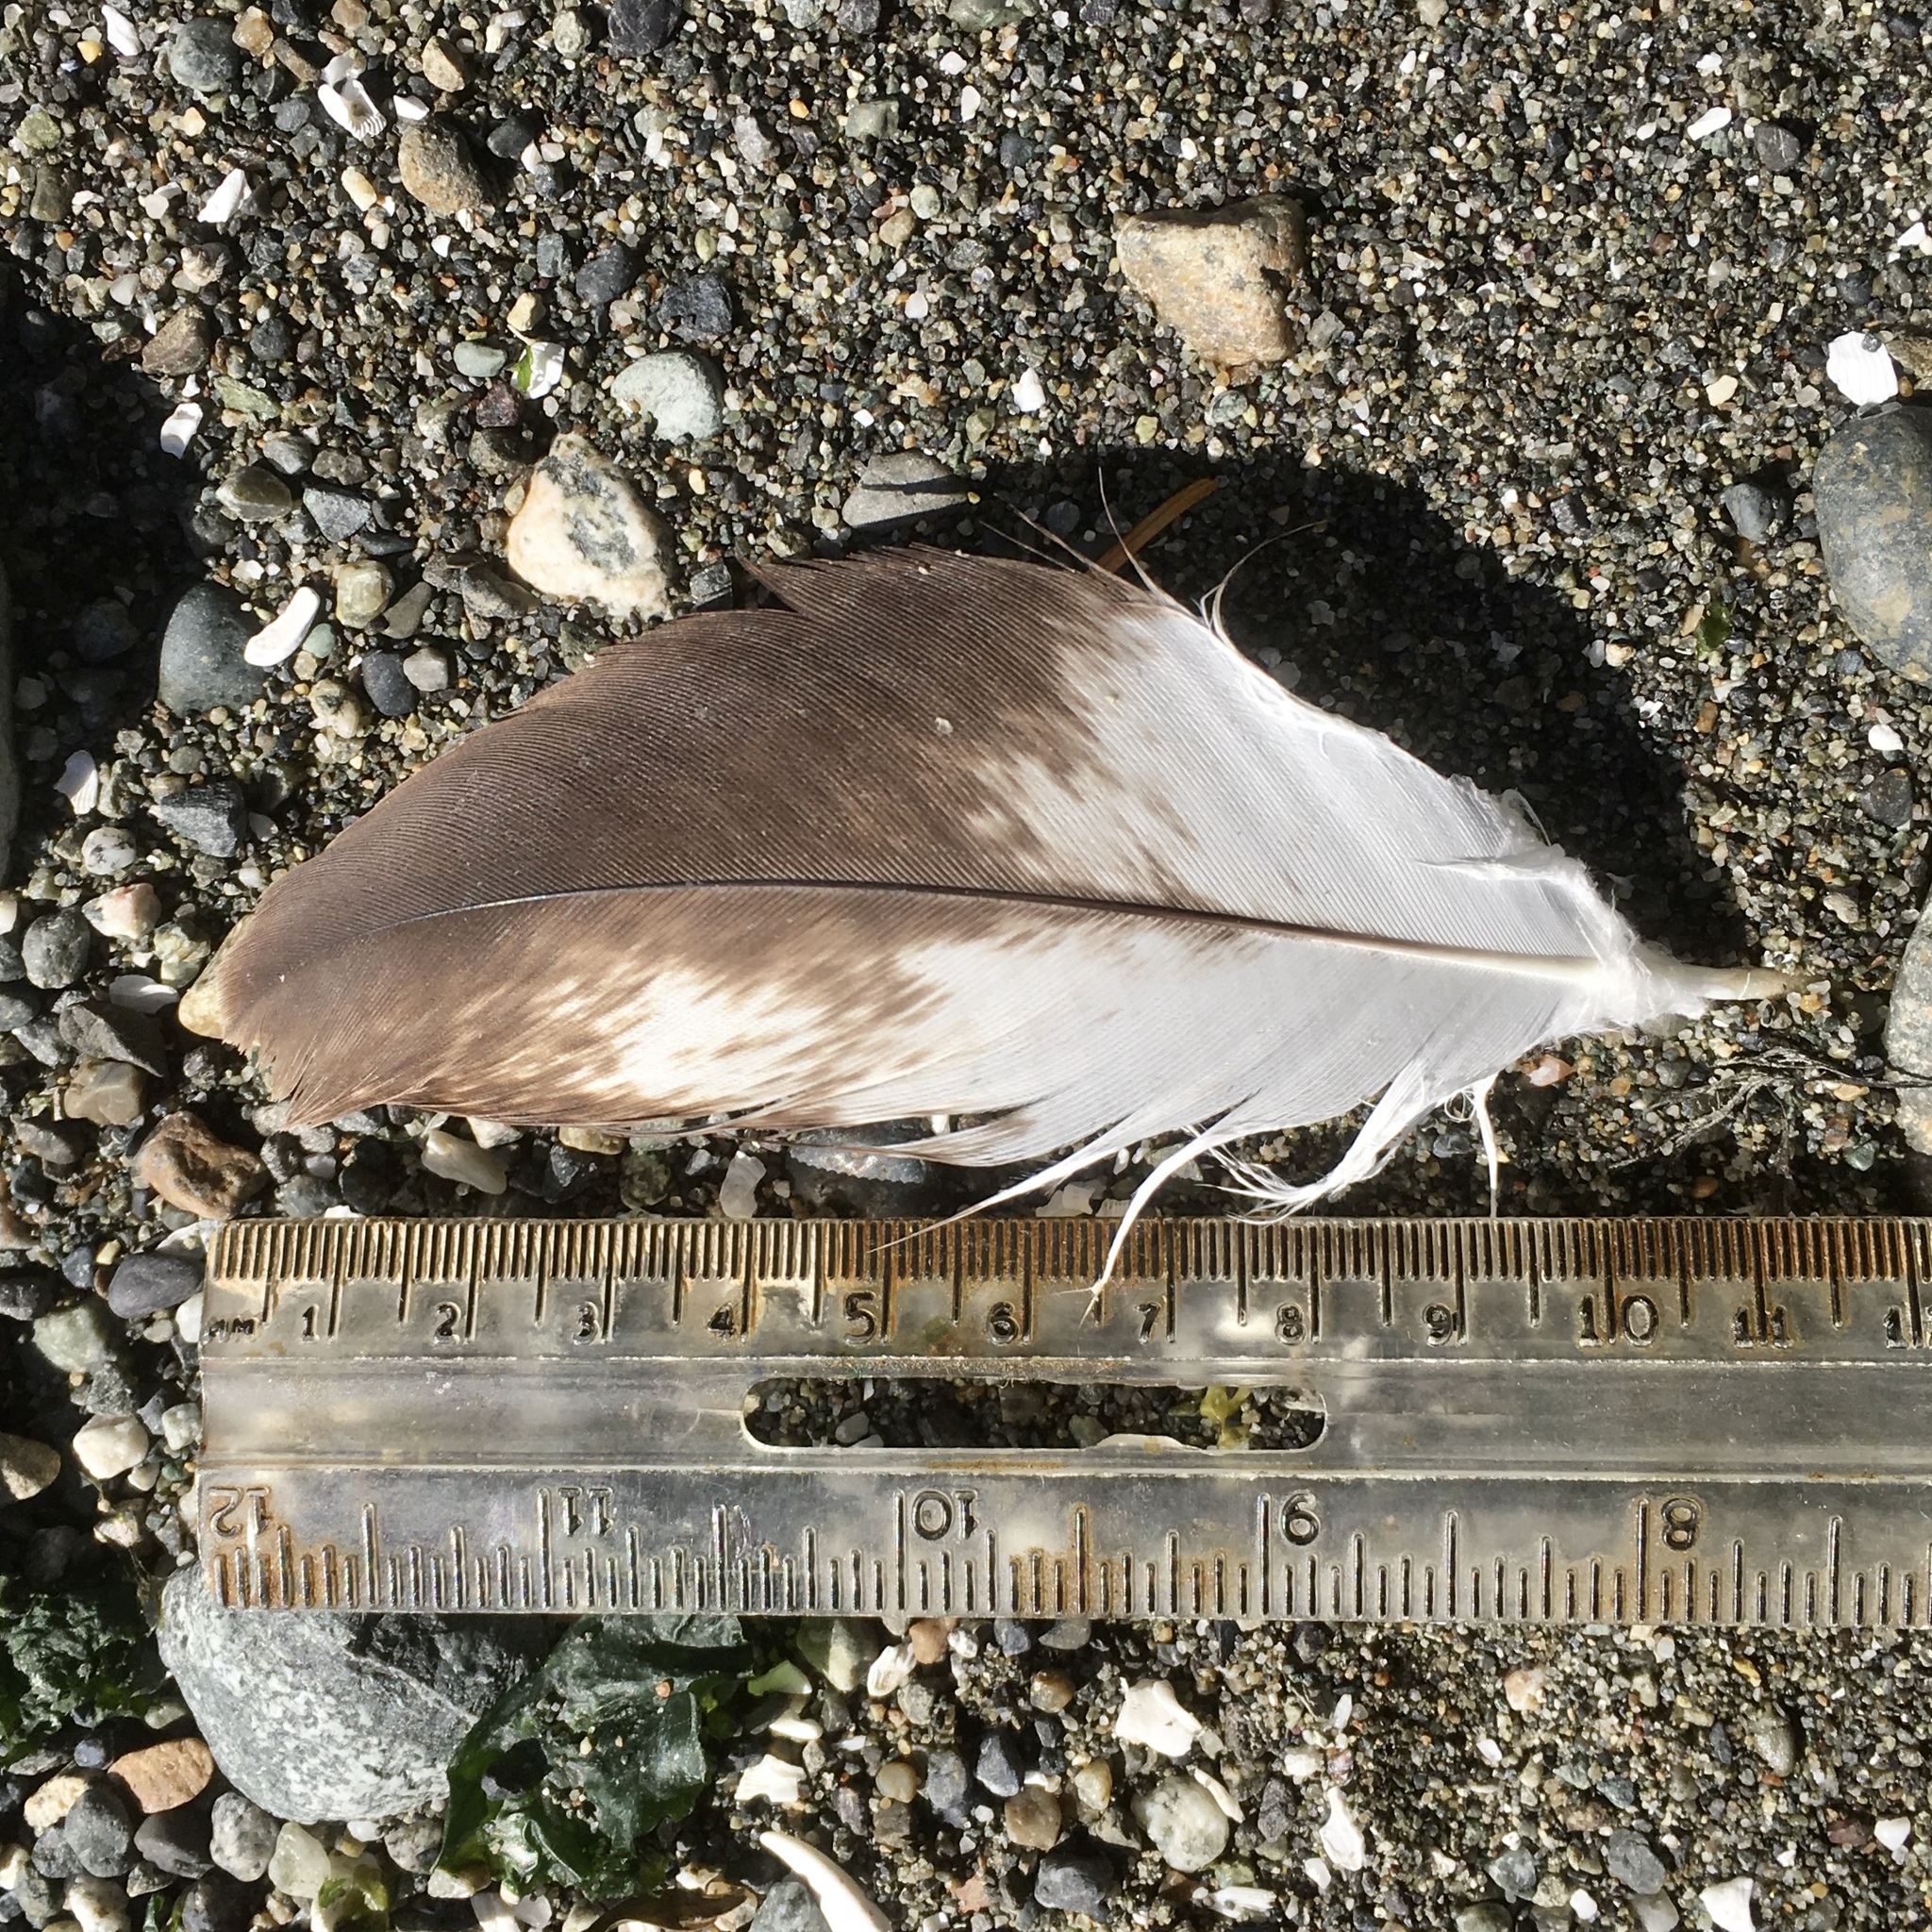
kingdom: Animalia
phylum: Chordata
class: Aves
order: Accipitriformes
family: Accipitridae
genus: Haliaeetus
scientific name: Haliaeetus leucocephalus
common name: Bald eagle
